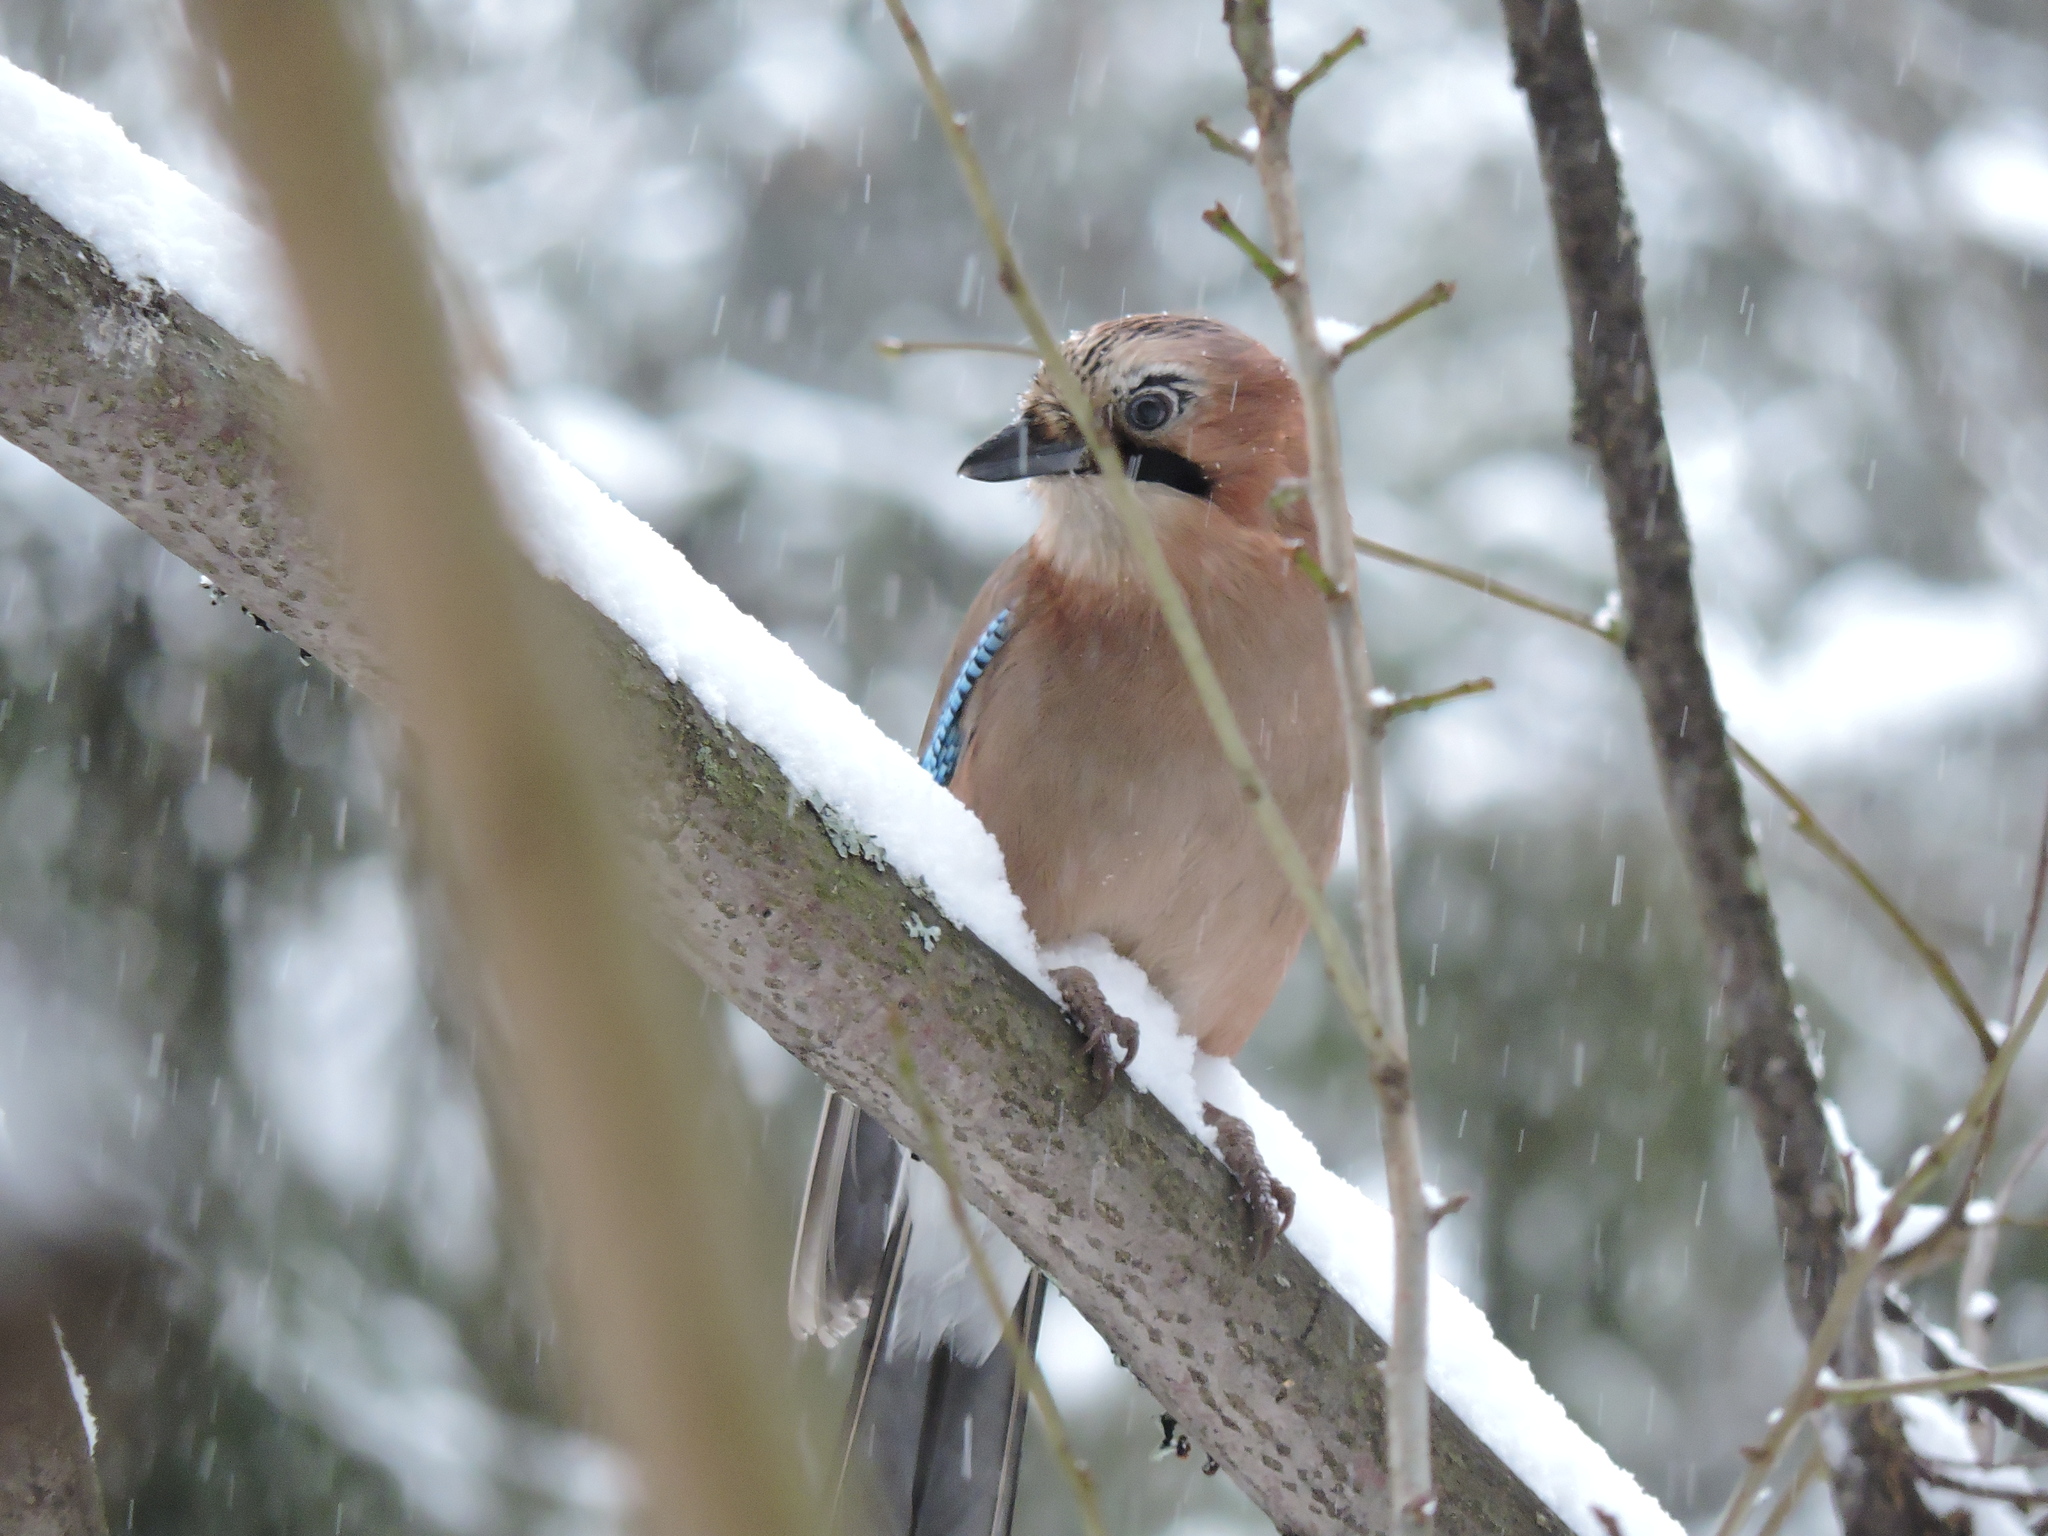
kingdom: Animalia
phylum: Chordata
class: Aves
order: Passeriformes
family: Corvidae
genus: Garrulus
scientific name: Garrulus glandarius
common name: Eurasian jay
